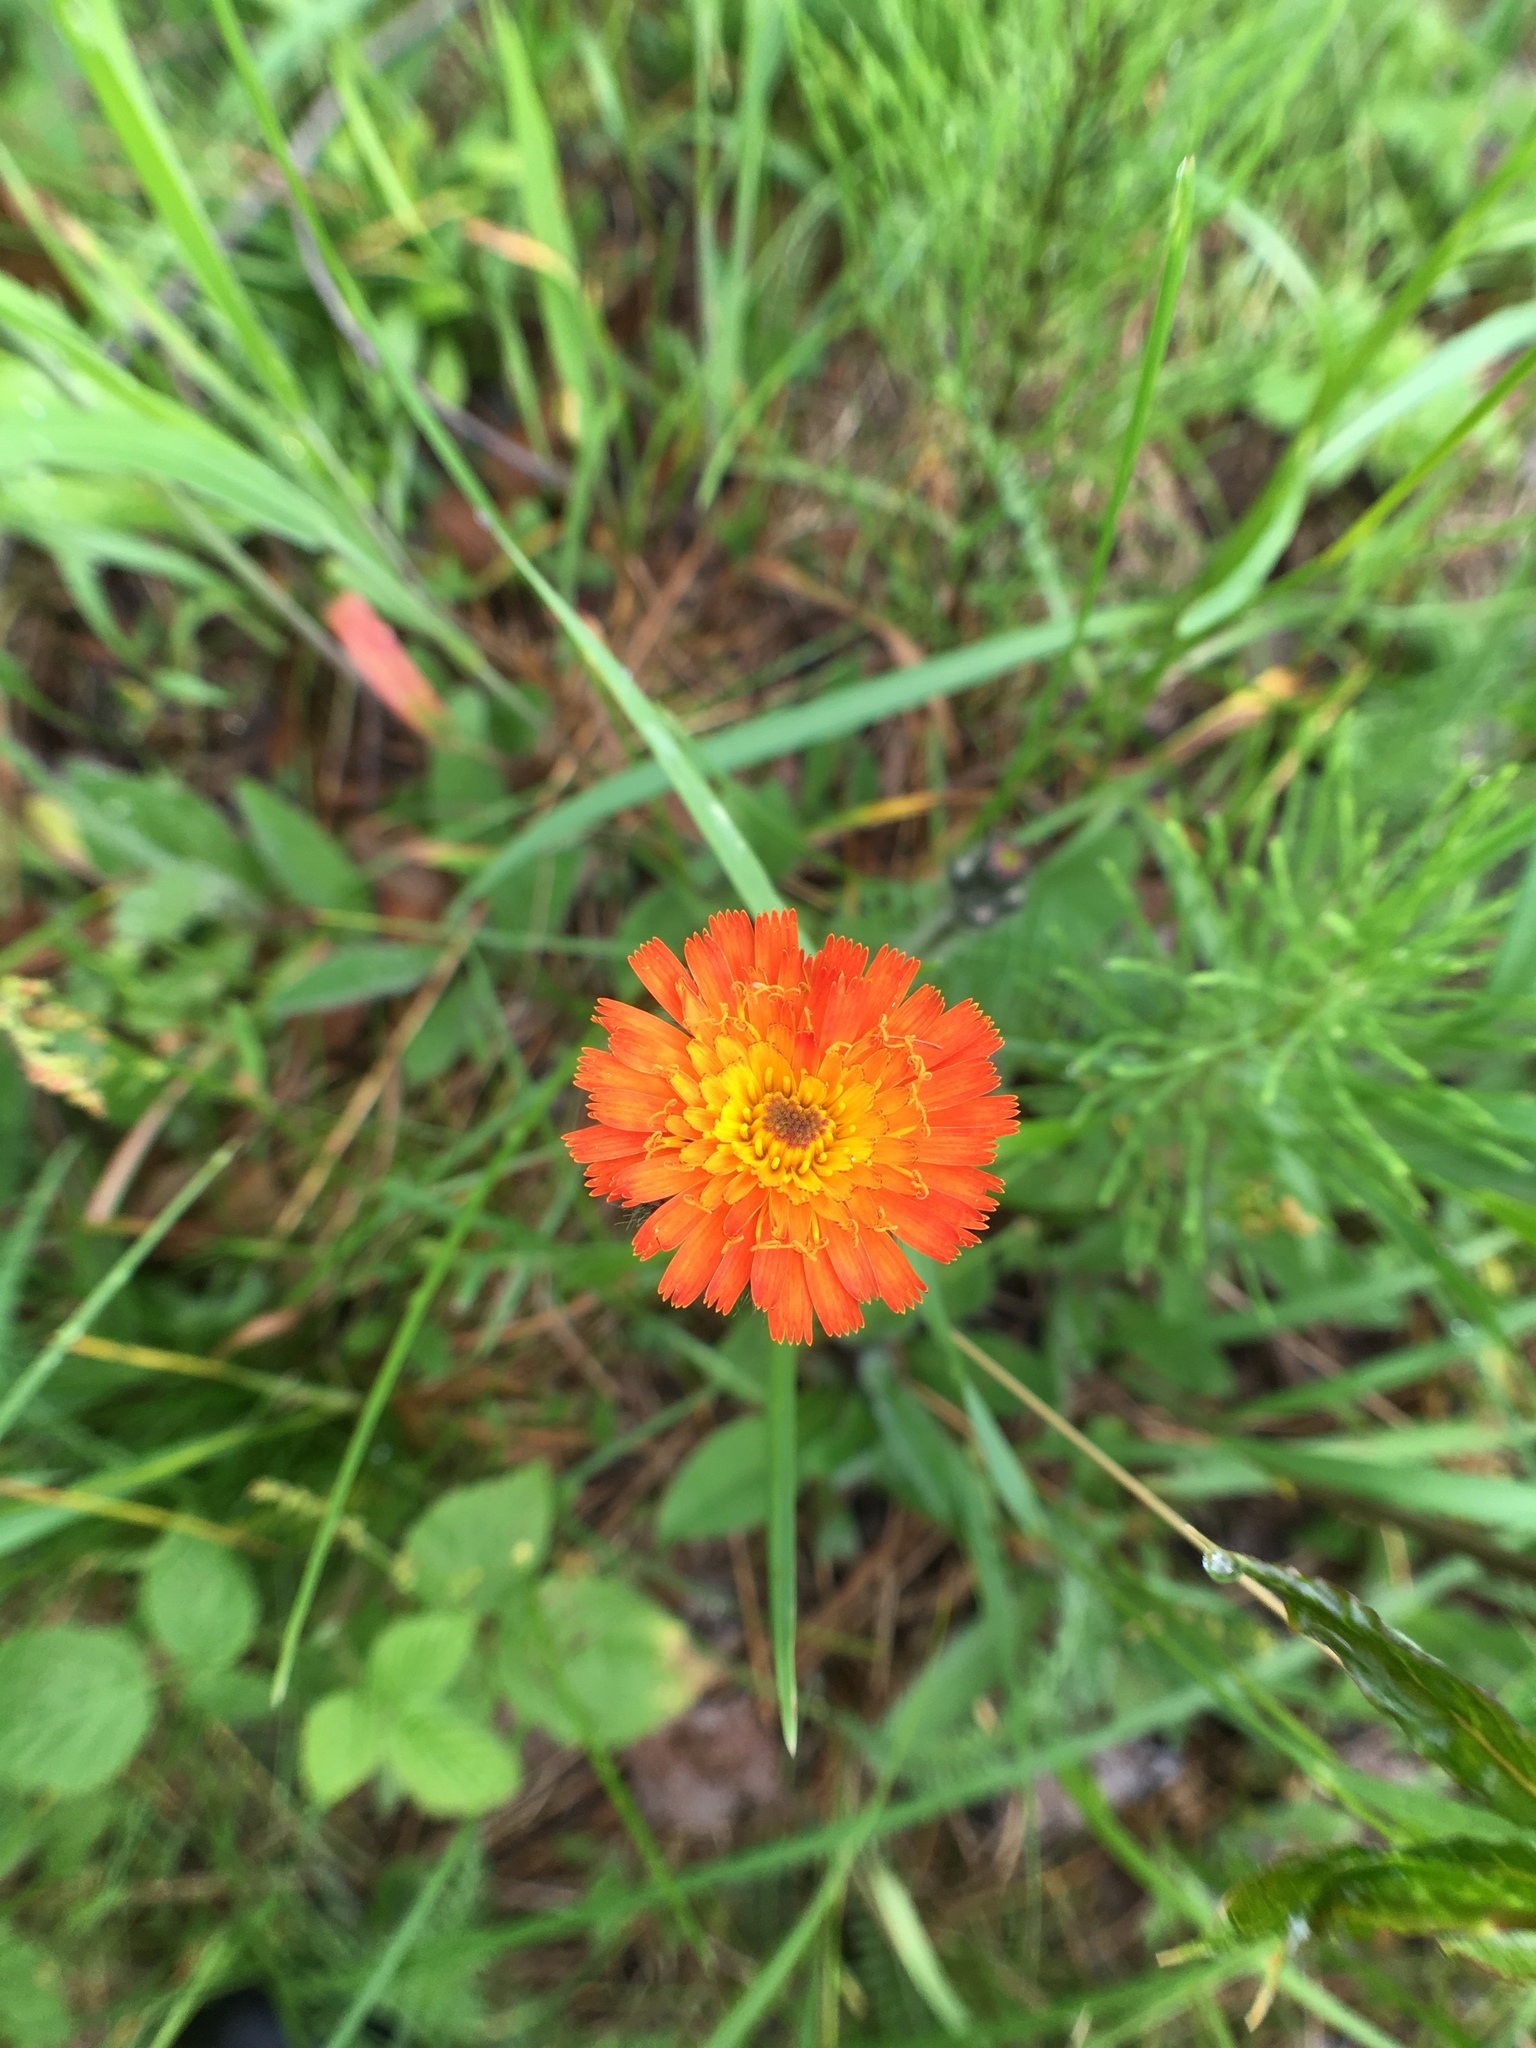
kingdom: Plantae
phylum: Tracheophyta
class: Magnoliopsida
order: Asterales
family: Asteraceae
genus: Pilosella
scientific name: Pilosella aurantiaca
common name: Fox-and-cubs
